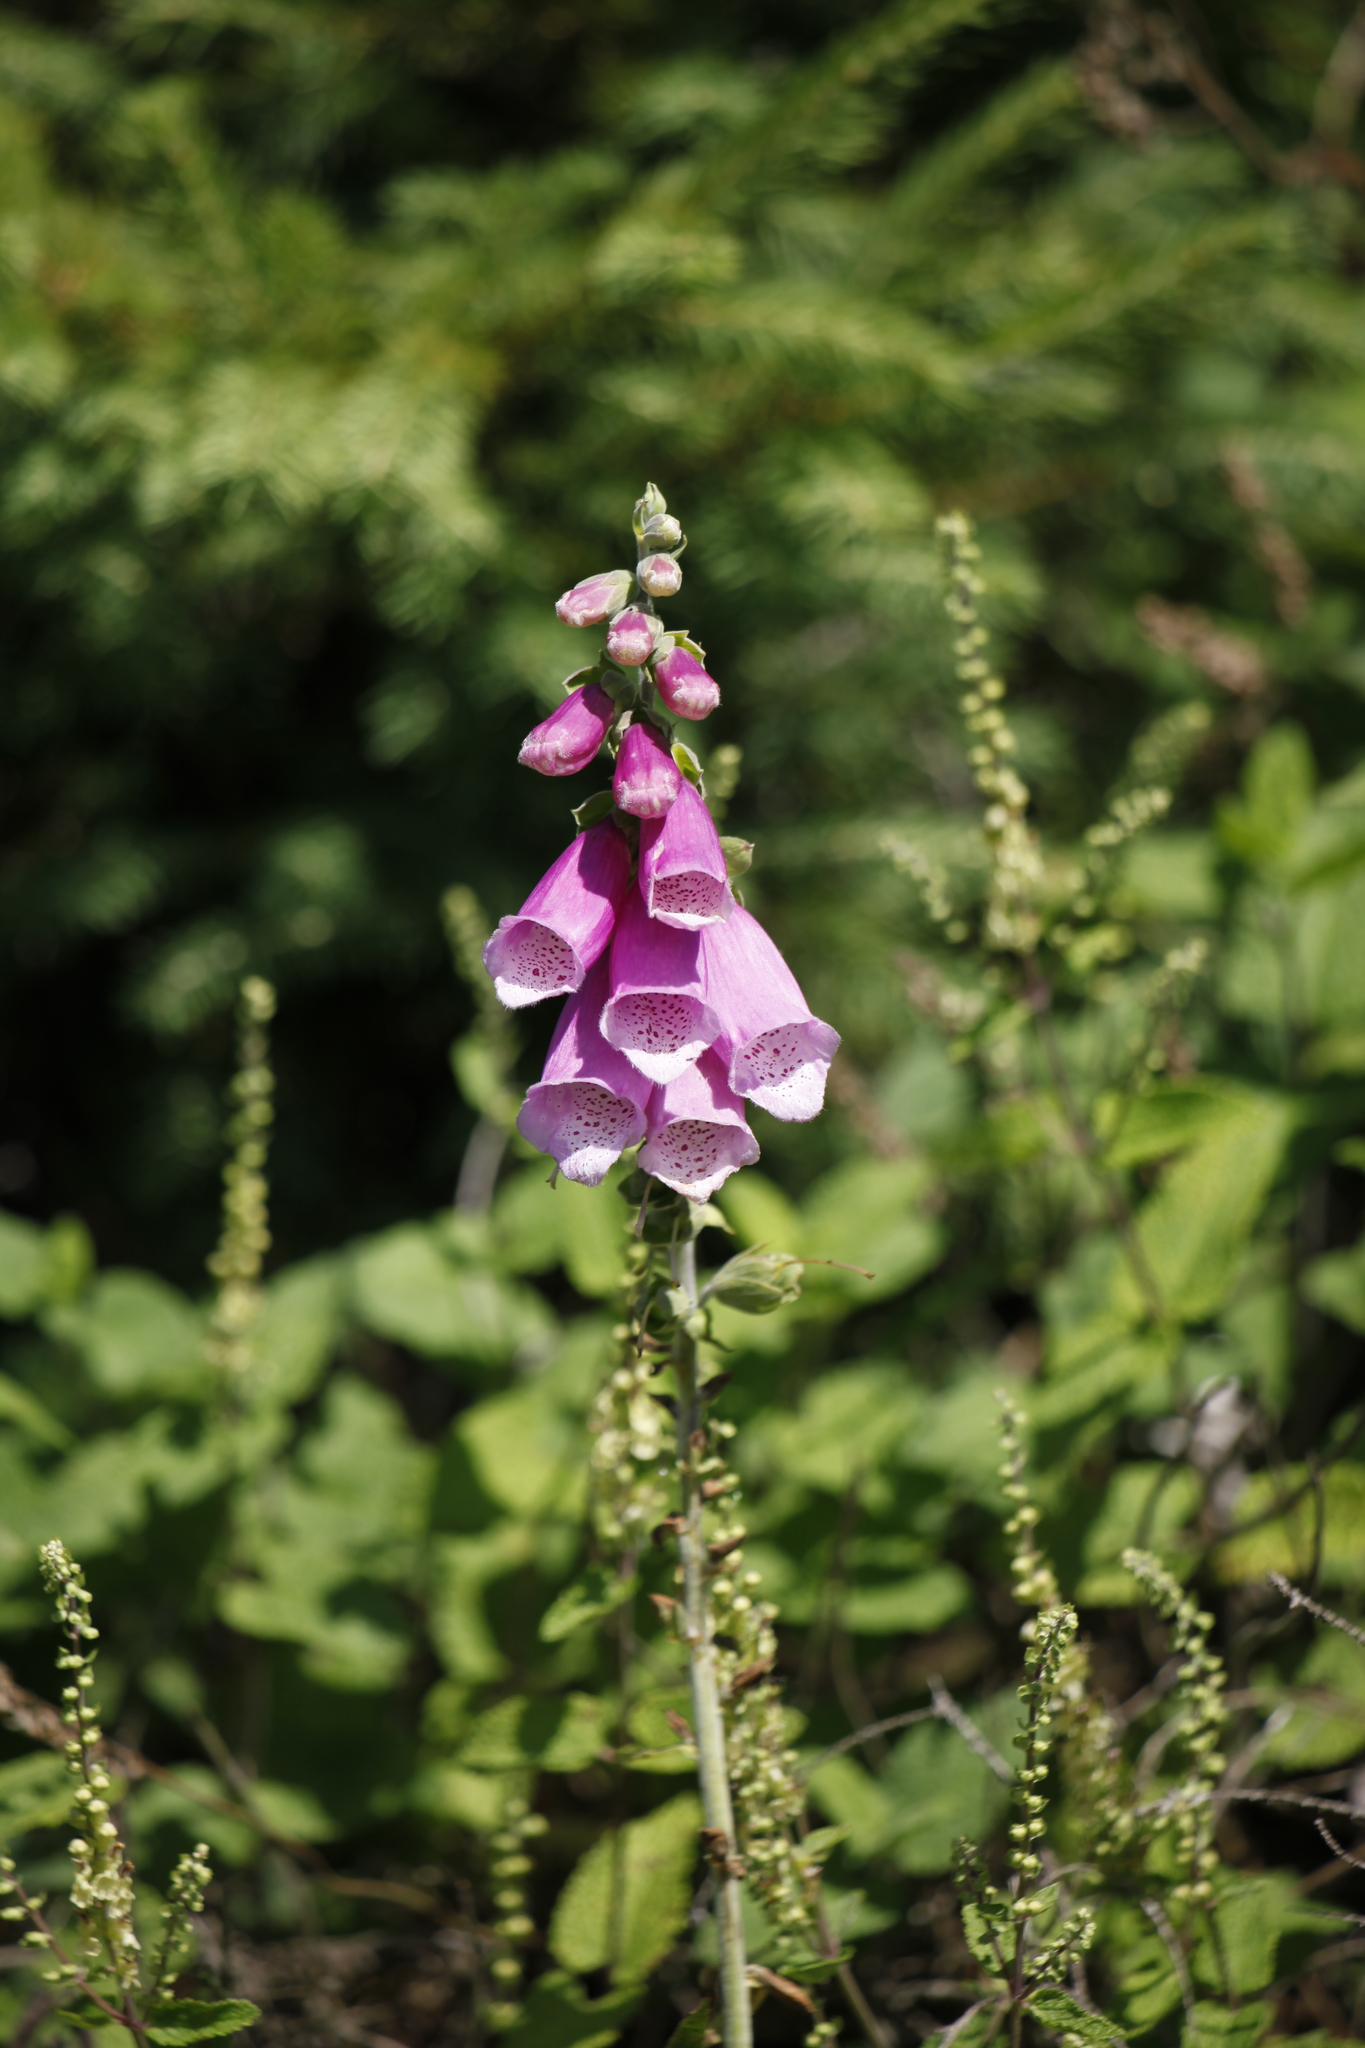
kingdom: Plantae
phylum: Tracheophyta
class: Magnoliopsida
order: Lamiales
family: Plantaginaceae
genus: Digitalis
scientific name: Digitalis purpurea
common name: Foxglove
